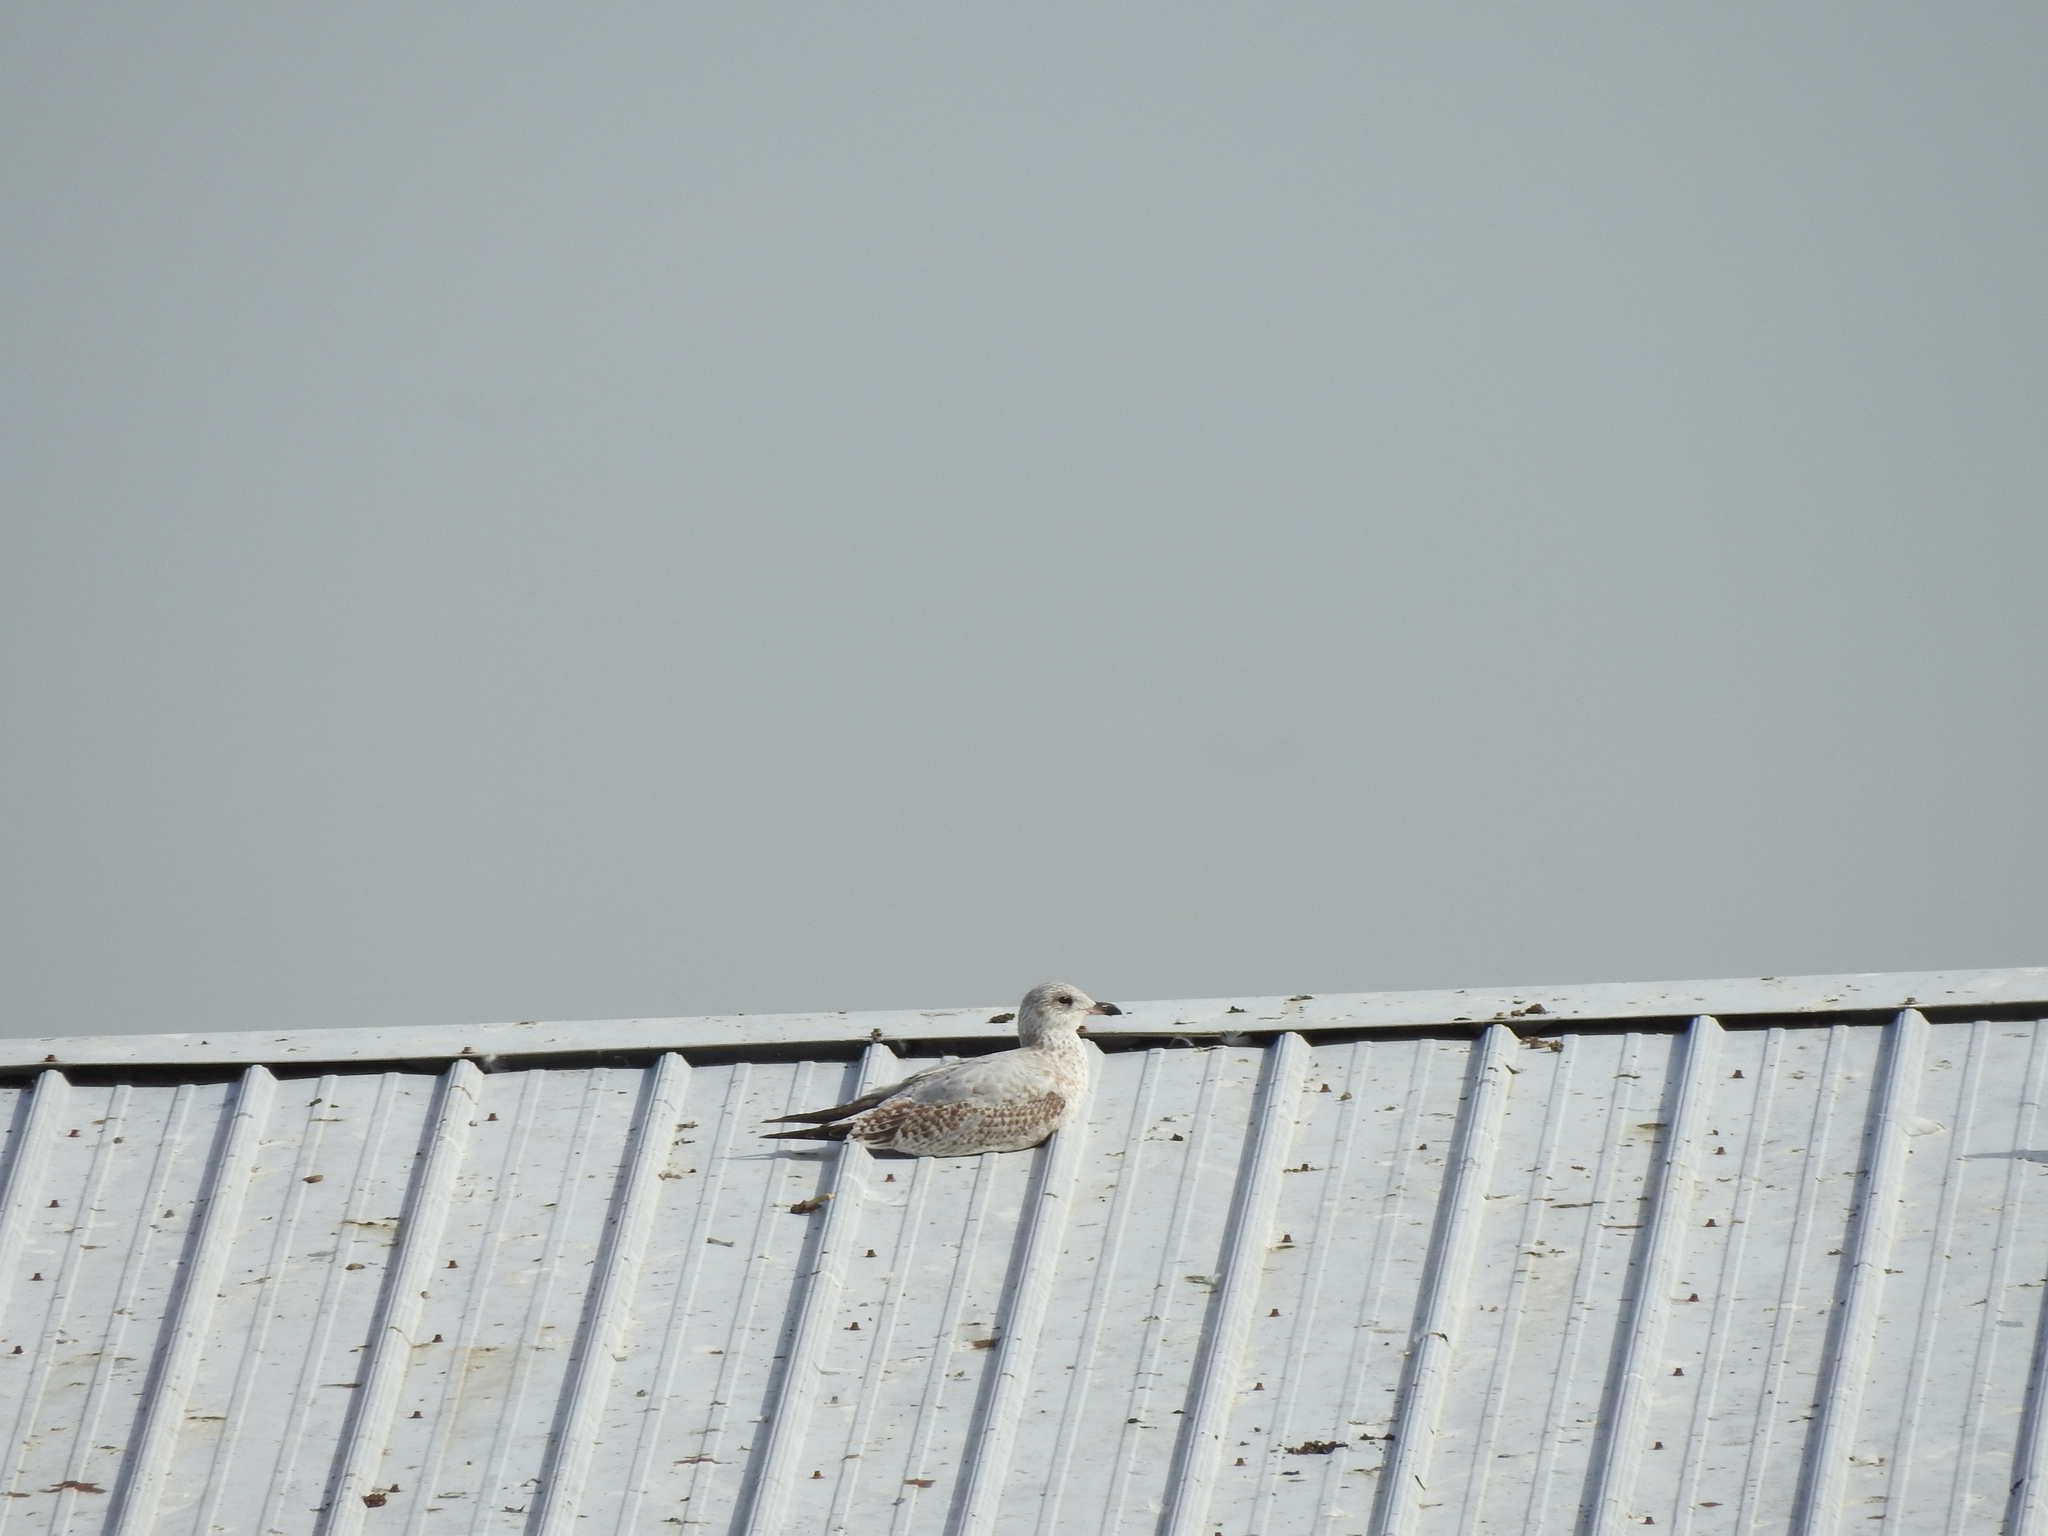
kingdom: Animalia
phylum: Chordata
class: Aves
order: Charadriiformes
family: Laridae
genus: Larus
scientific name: Larus delawarensis
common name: Ring-billed gull
